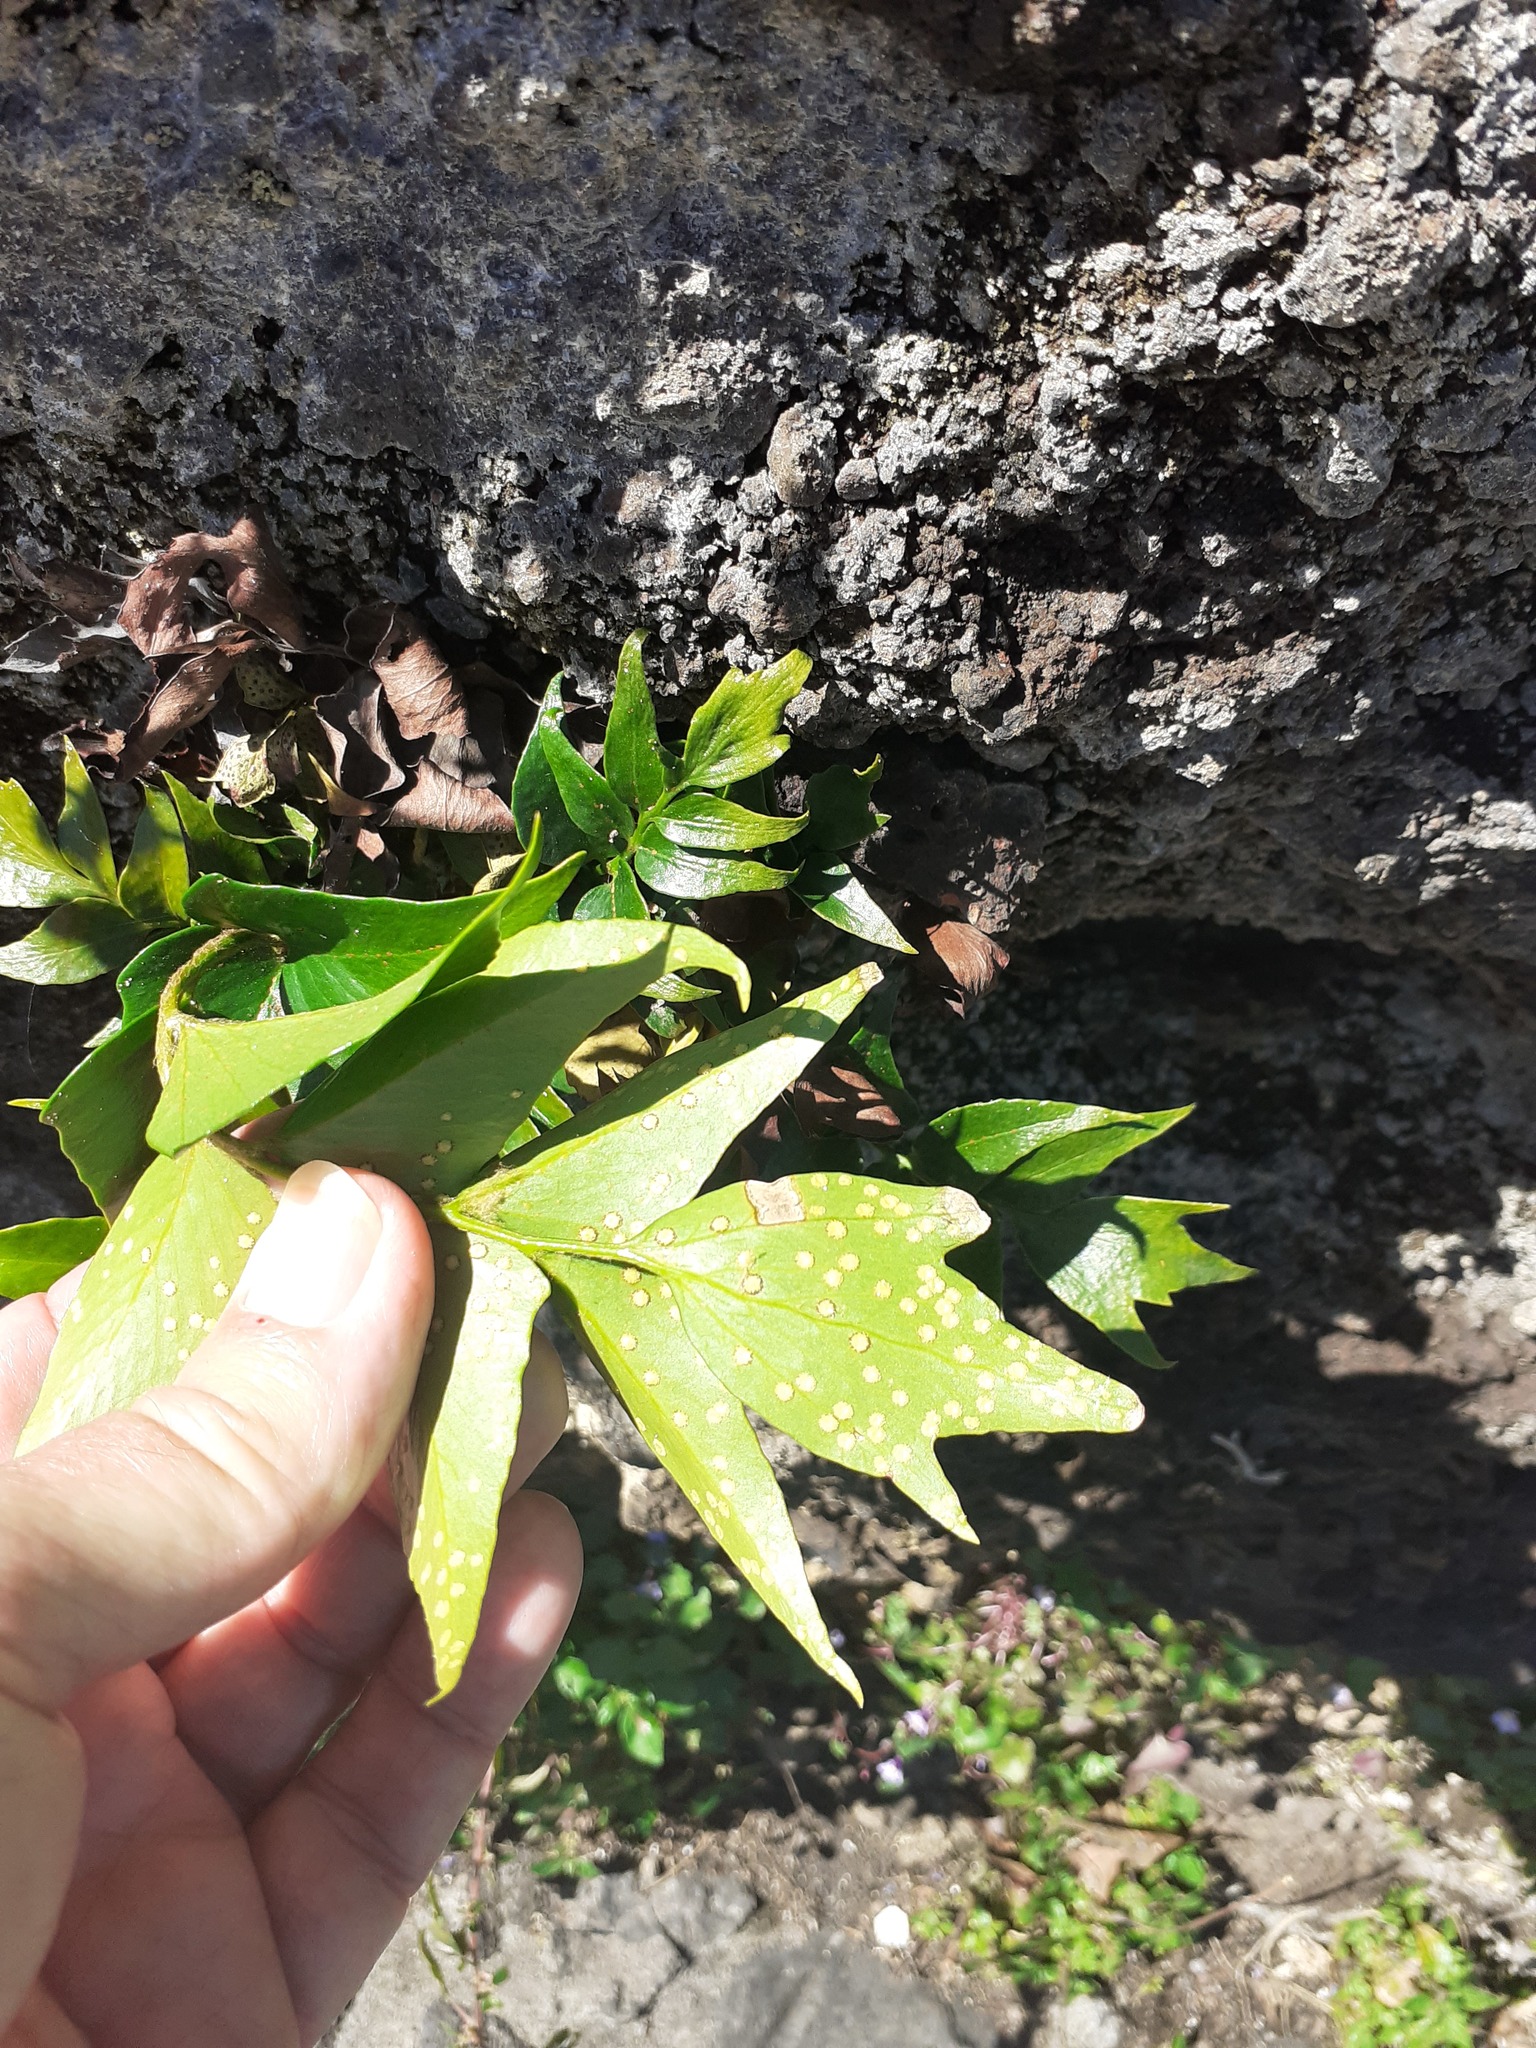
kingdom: Plantae
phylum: Tracheophyta
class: Polypodiopsida
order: Polypodiales
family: Dryopteridaceae
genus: Cyrtomium
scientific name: Cyrtomium falcatum
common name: House holly-fern
